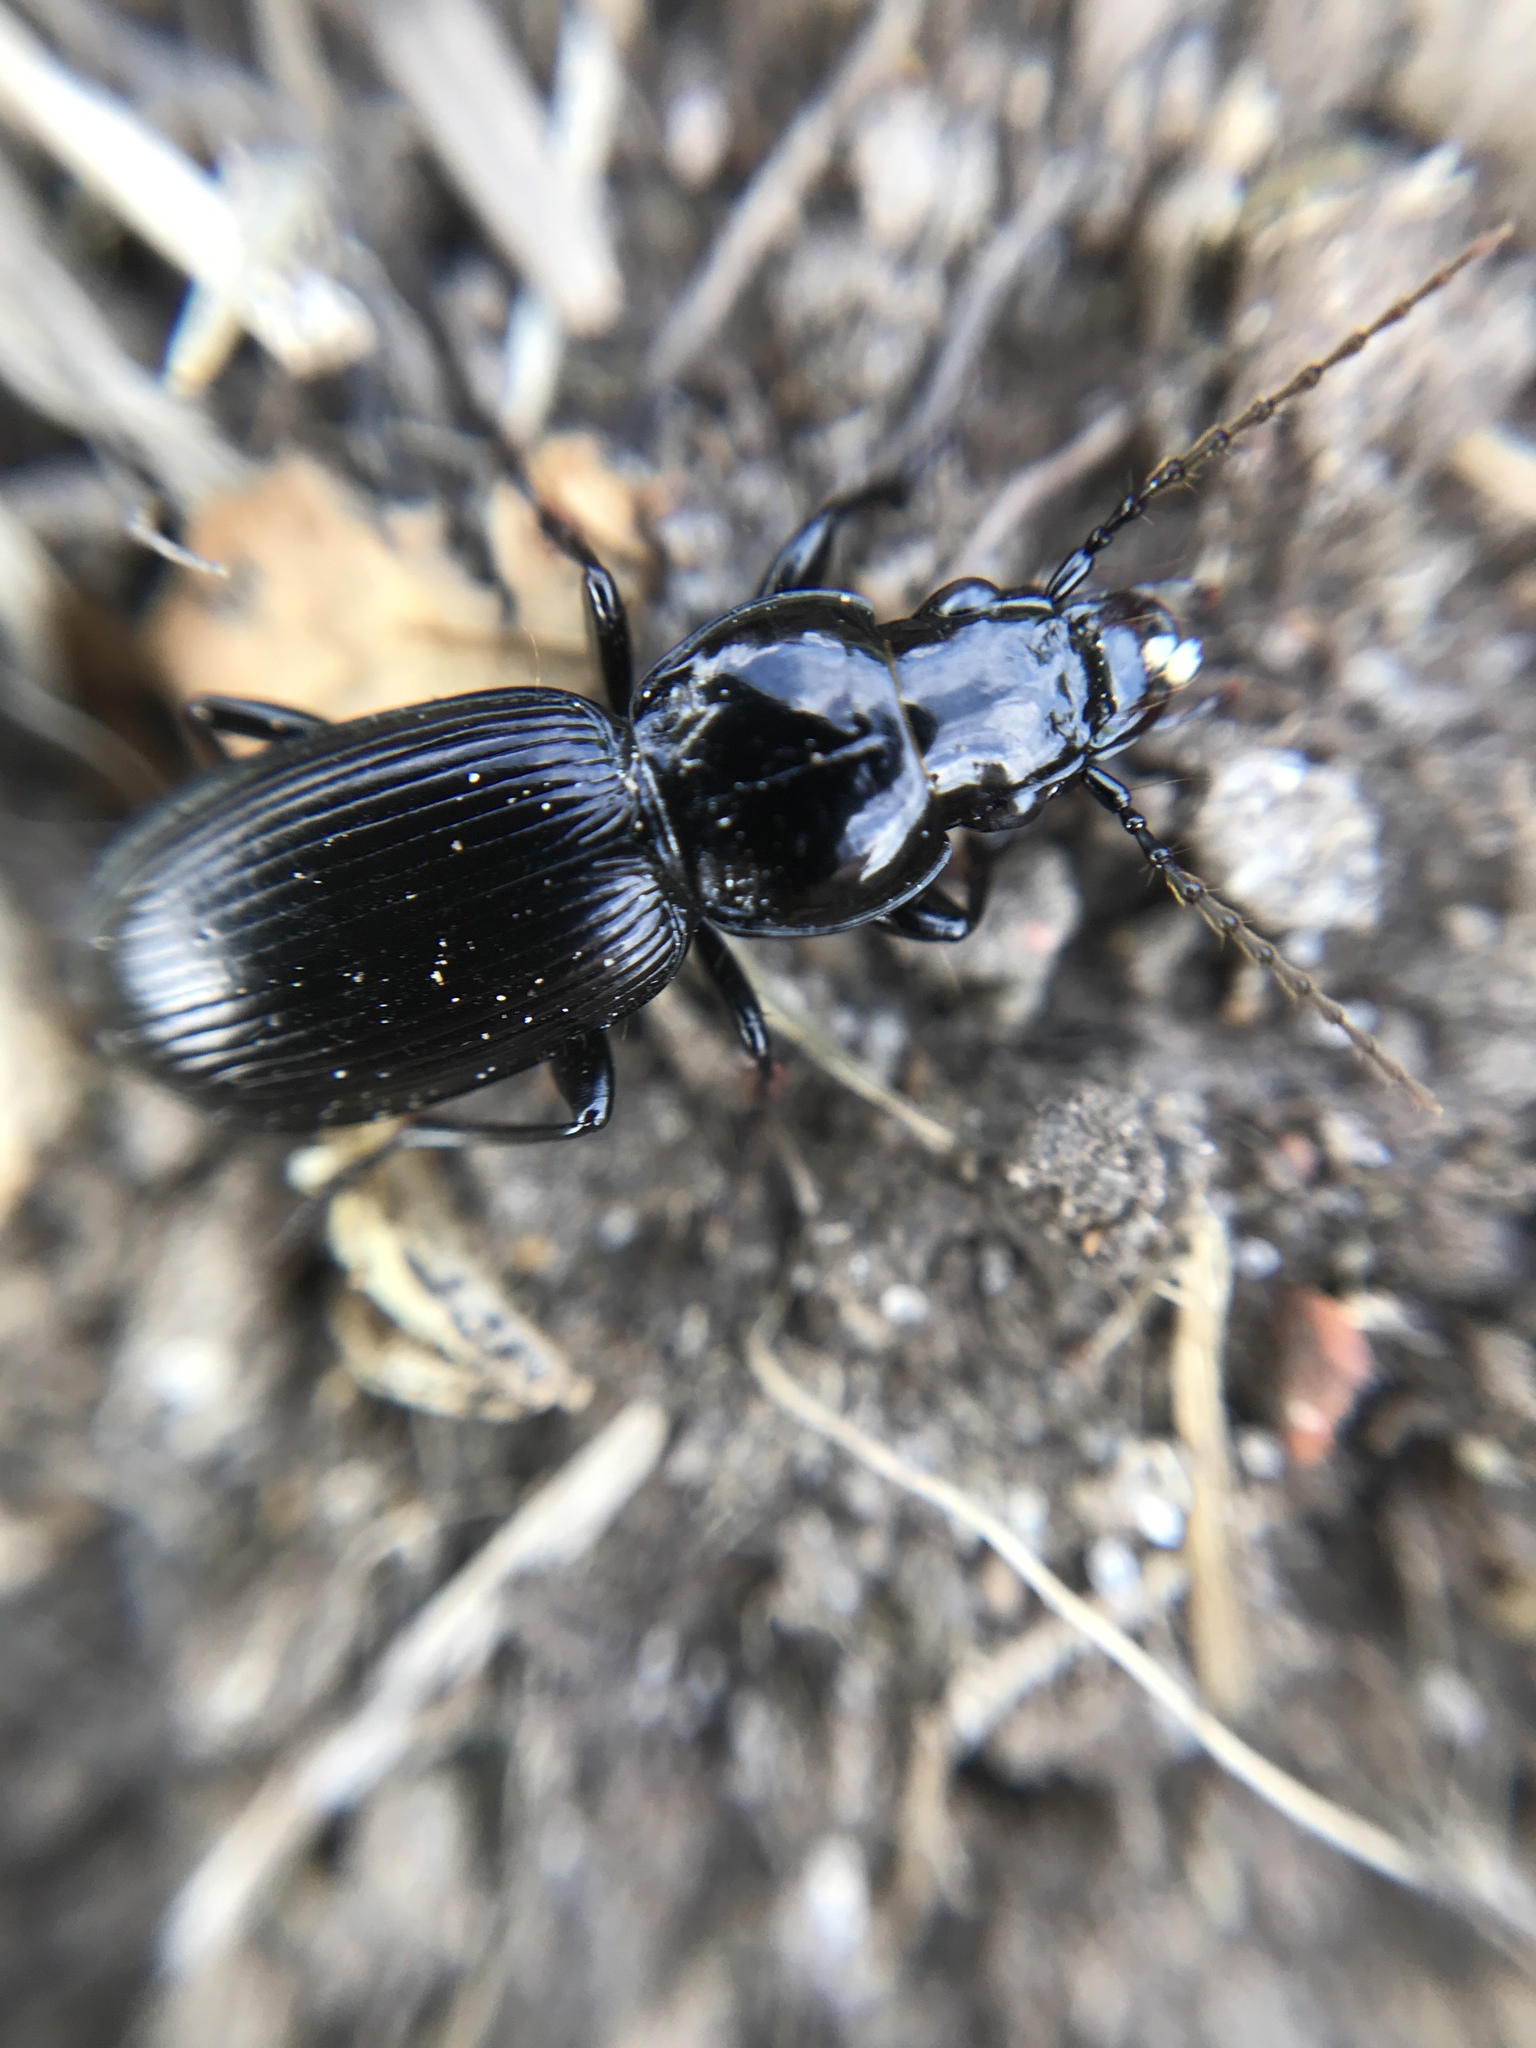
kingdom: Animalia
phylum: Arthropoda
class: Insecta
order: Coleoptera
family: Carabidae
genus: Pterostichus
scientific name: Pterostichus madidus
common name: Black clock
